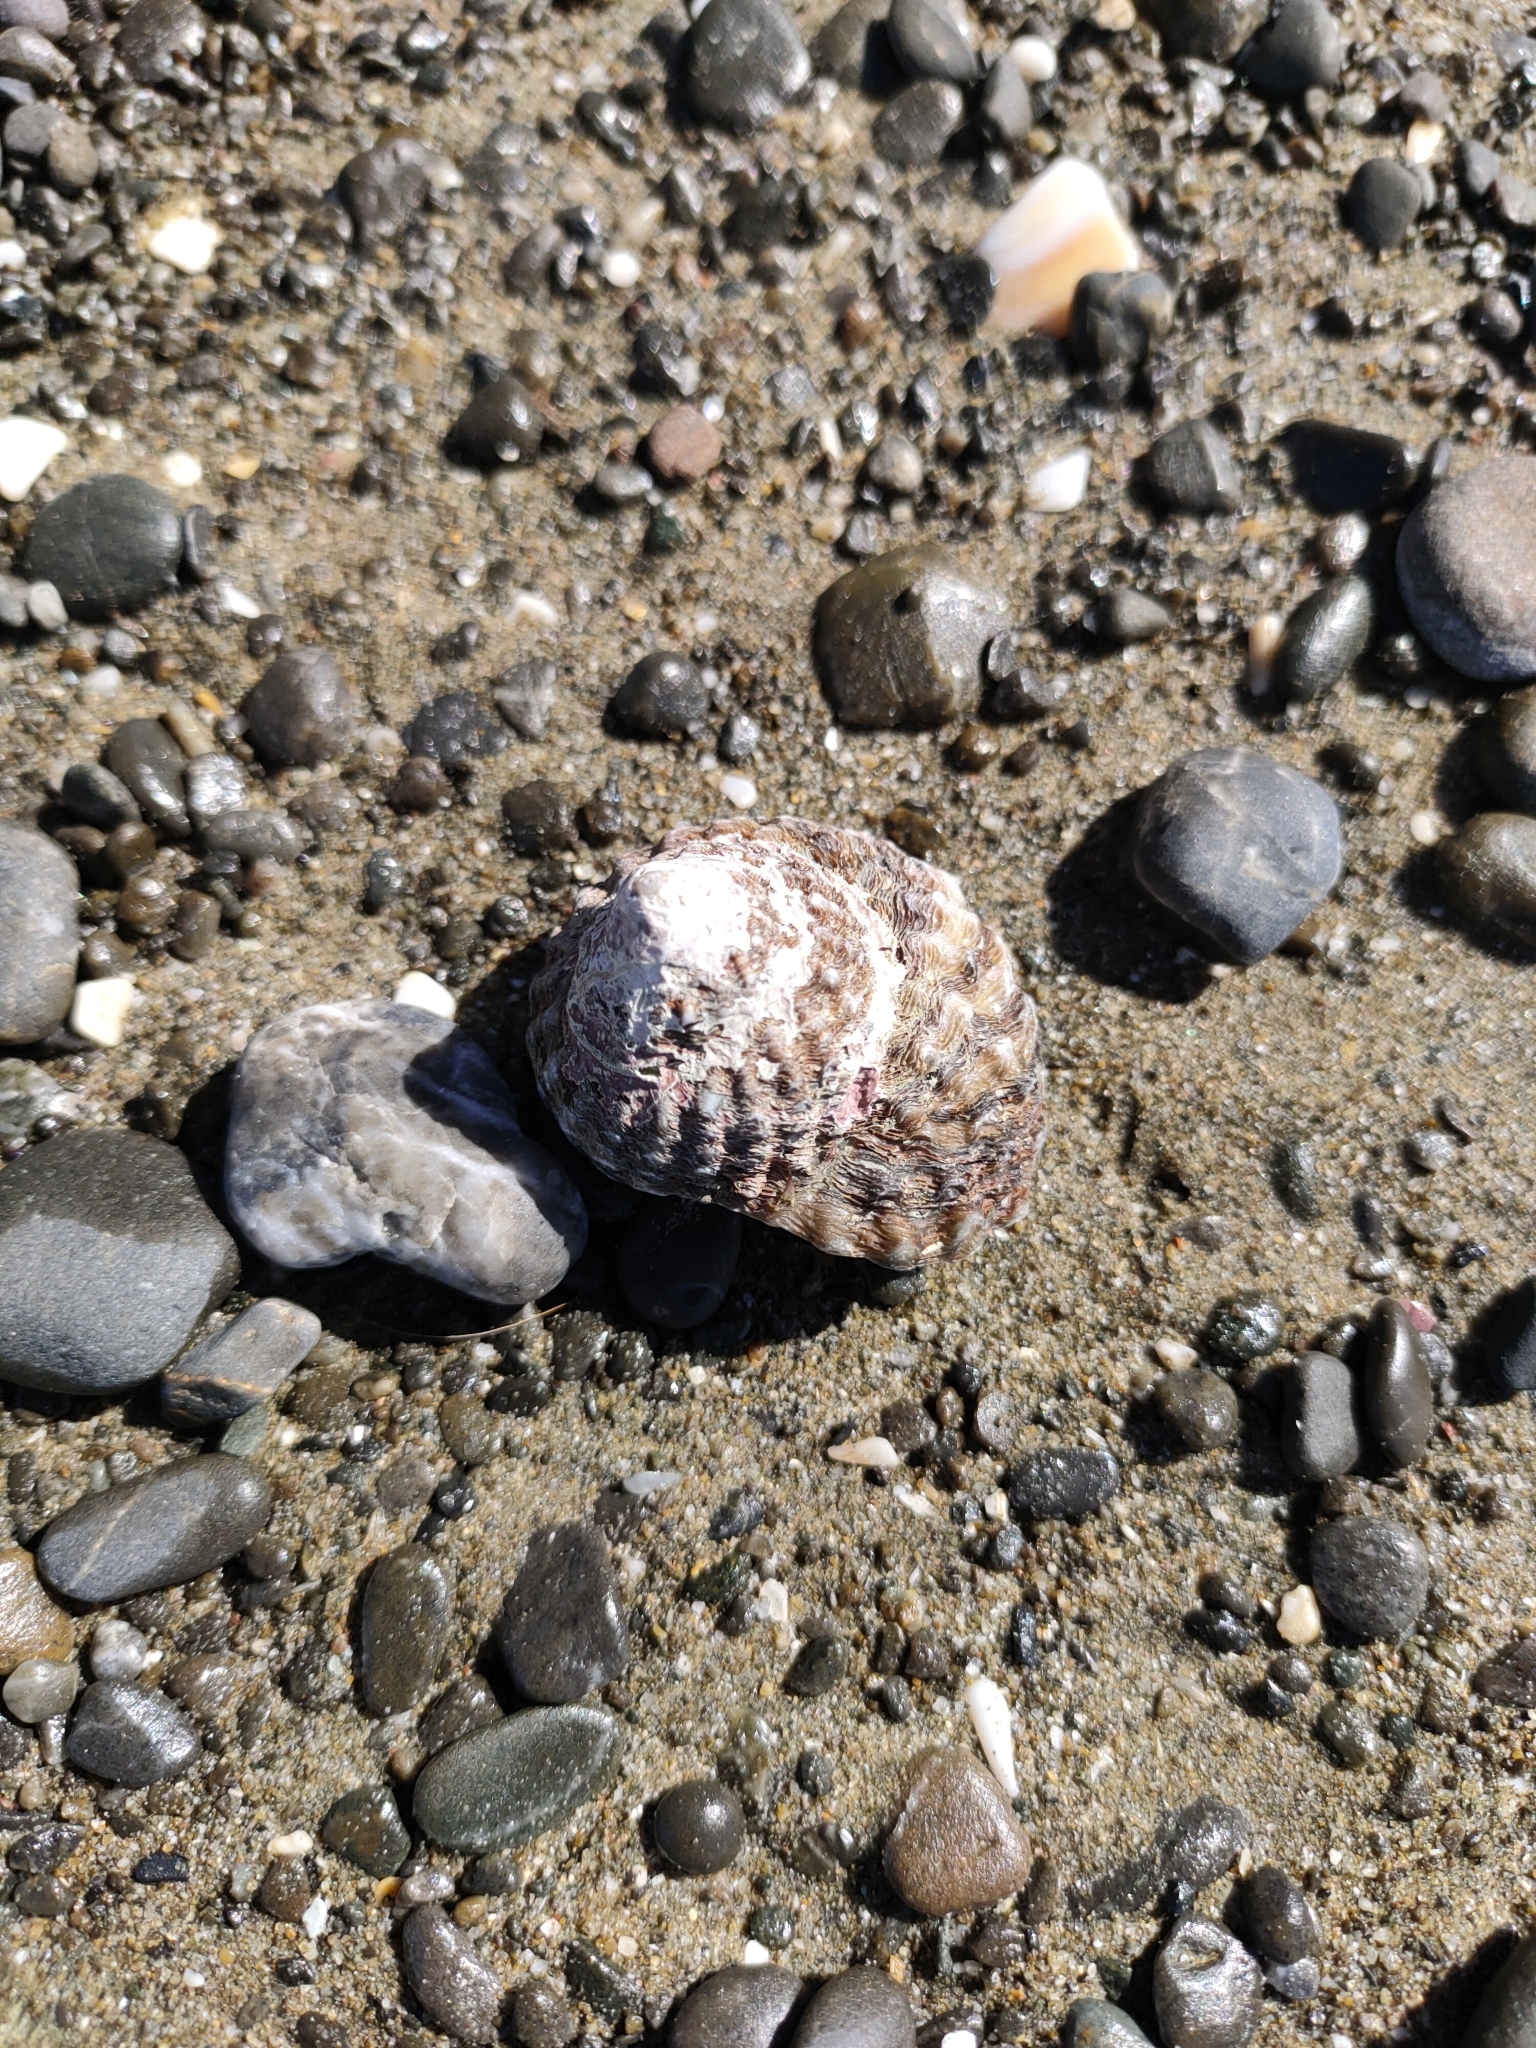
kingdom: Animalia
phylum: Mollusca
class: Gastropoda
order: Trochida
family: Turbinidae
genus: Cookia
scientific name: Cookia sulcata
